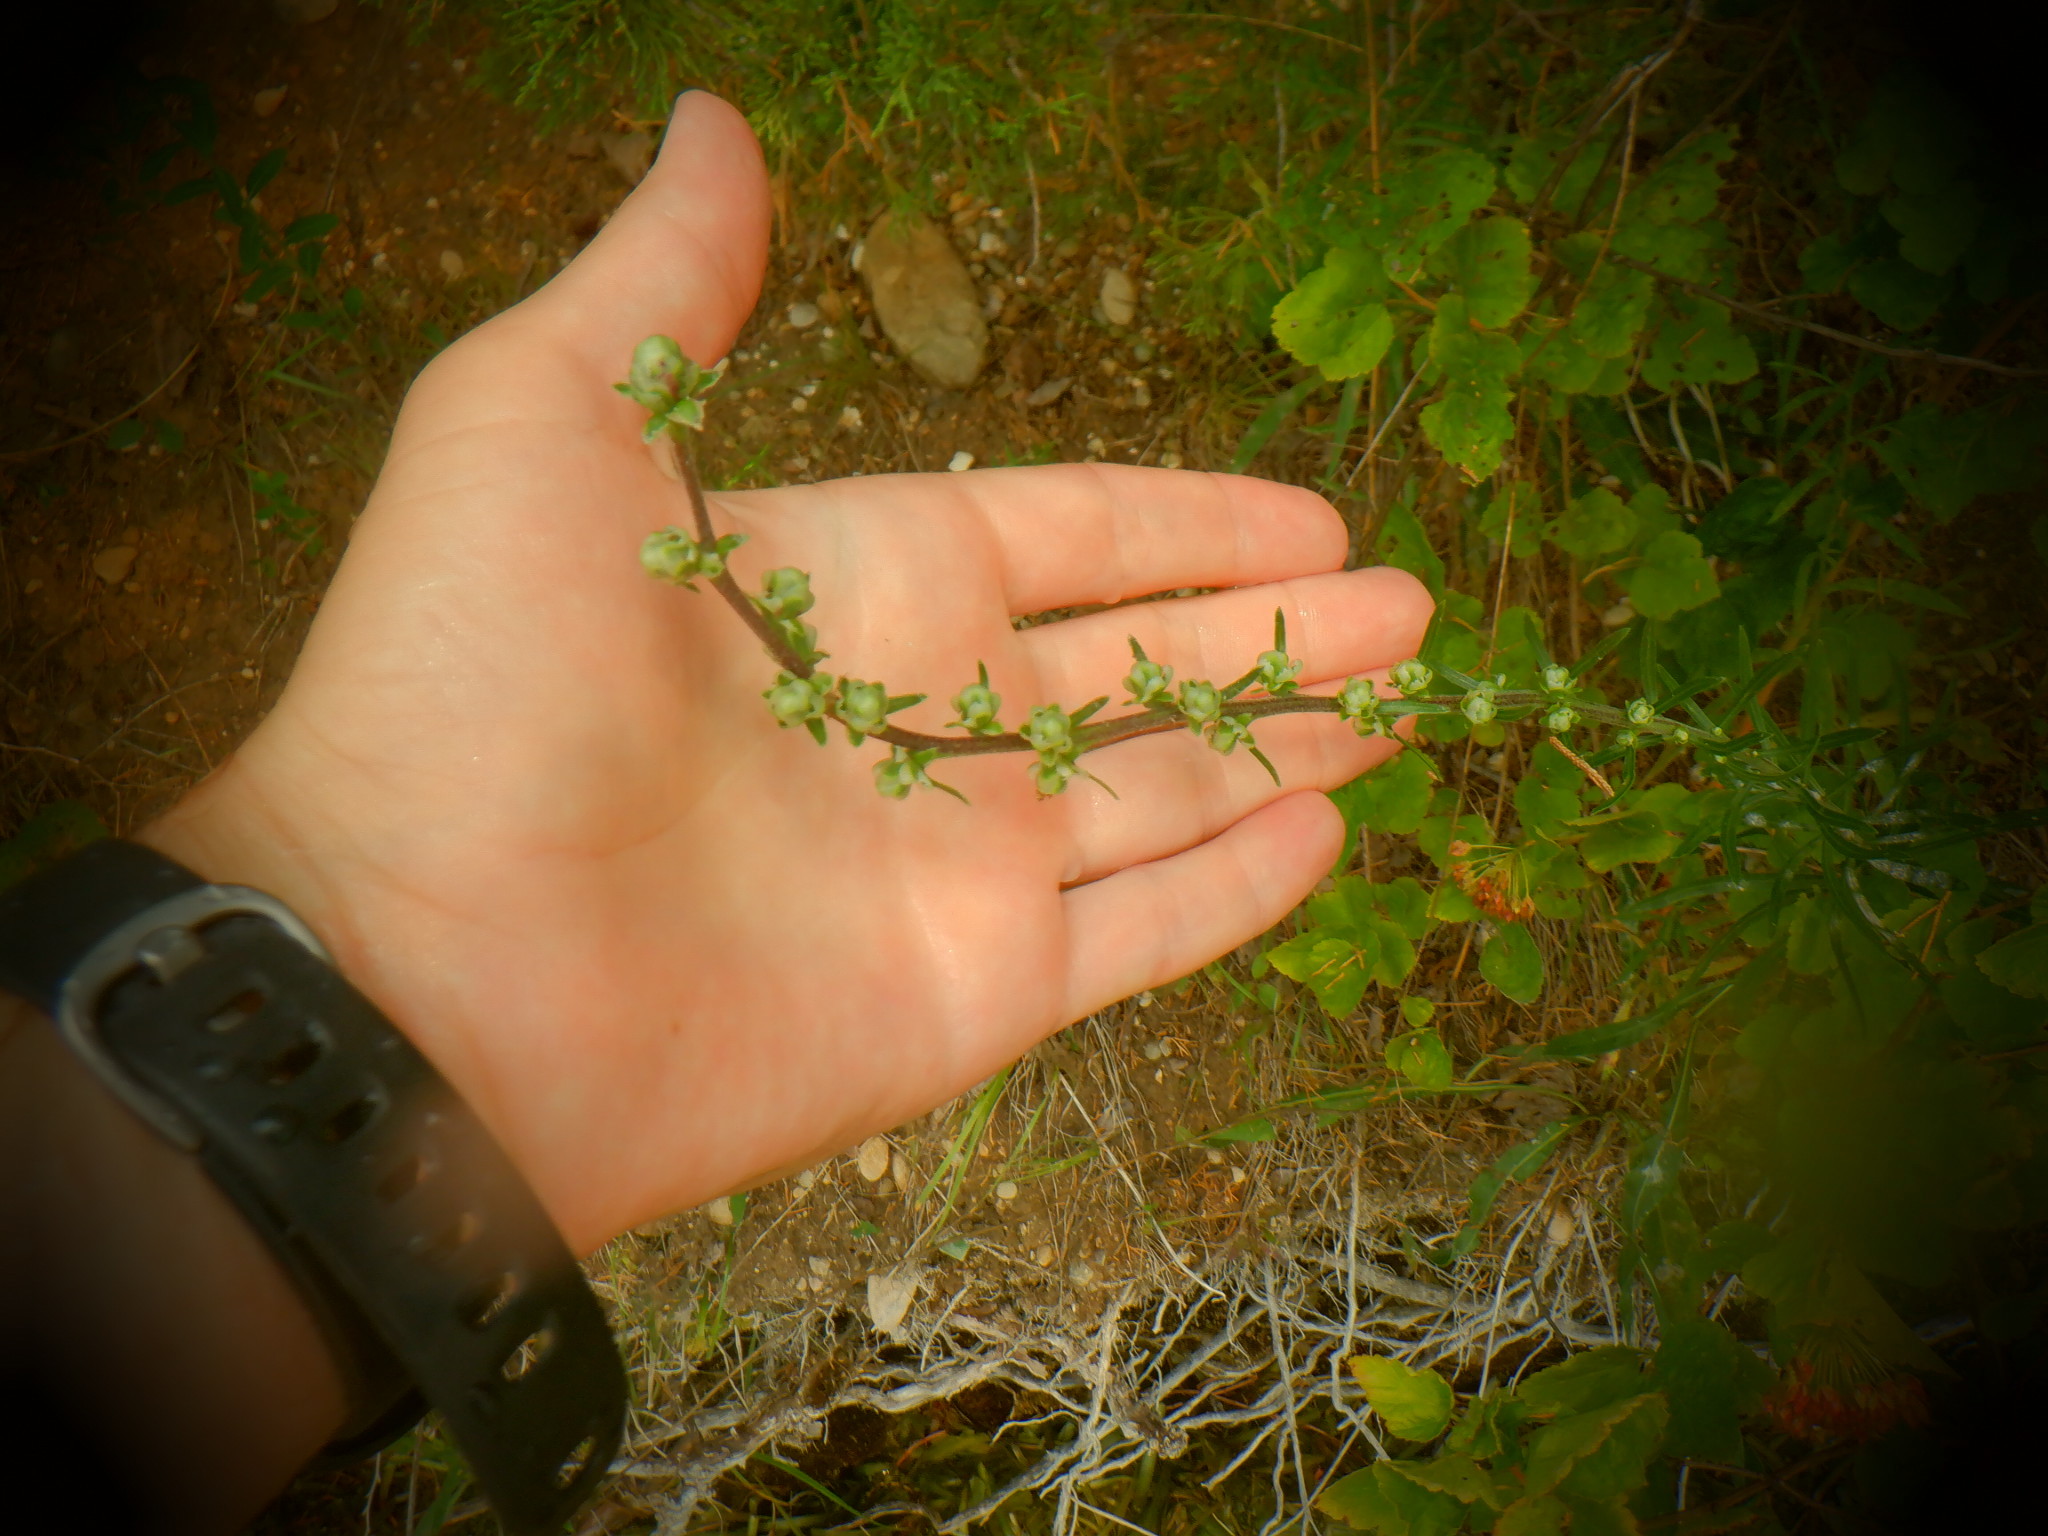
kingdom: Plantae
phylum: Tracheophyta
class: Magnoliopsida
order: Asterales
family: Asteraceae
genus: Liatris
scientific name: Liatris aspera
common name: Lacerate blazing-star
